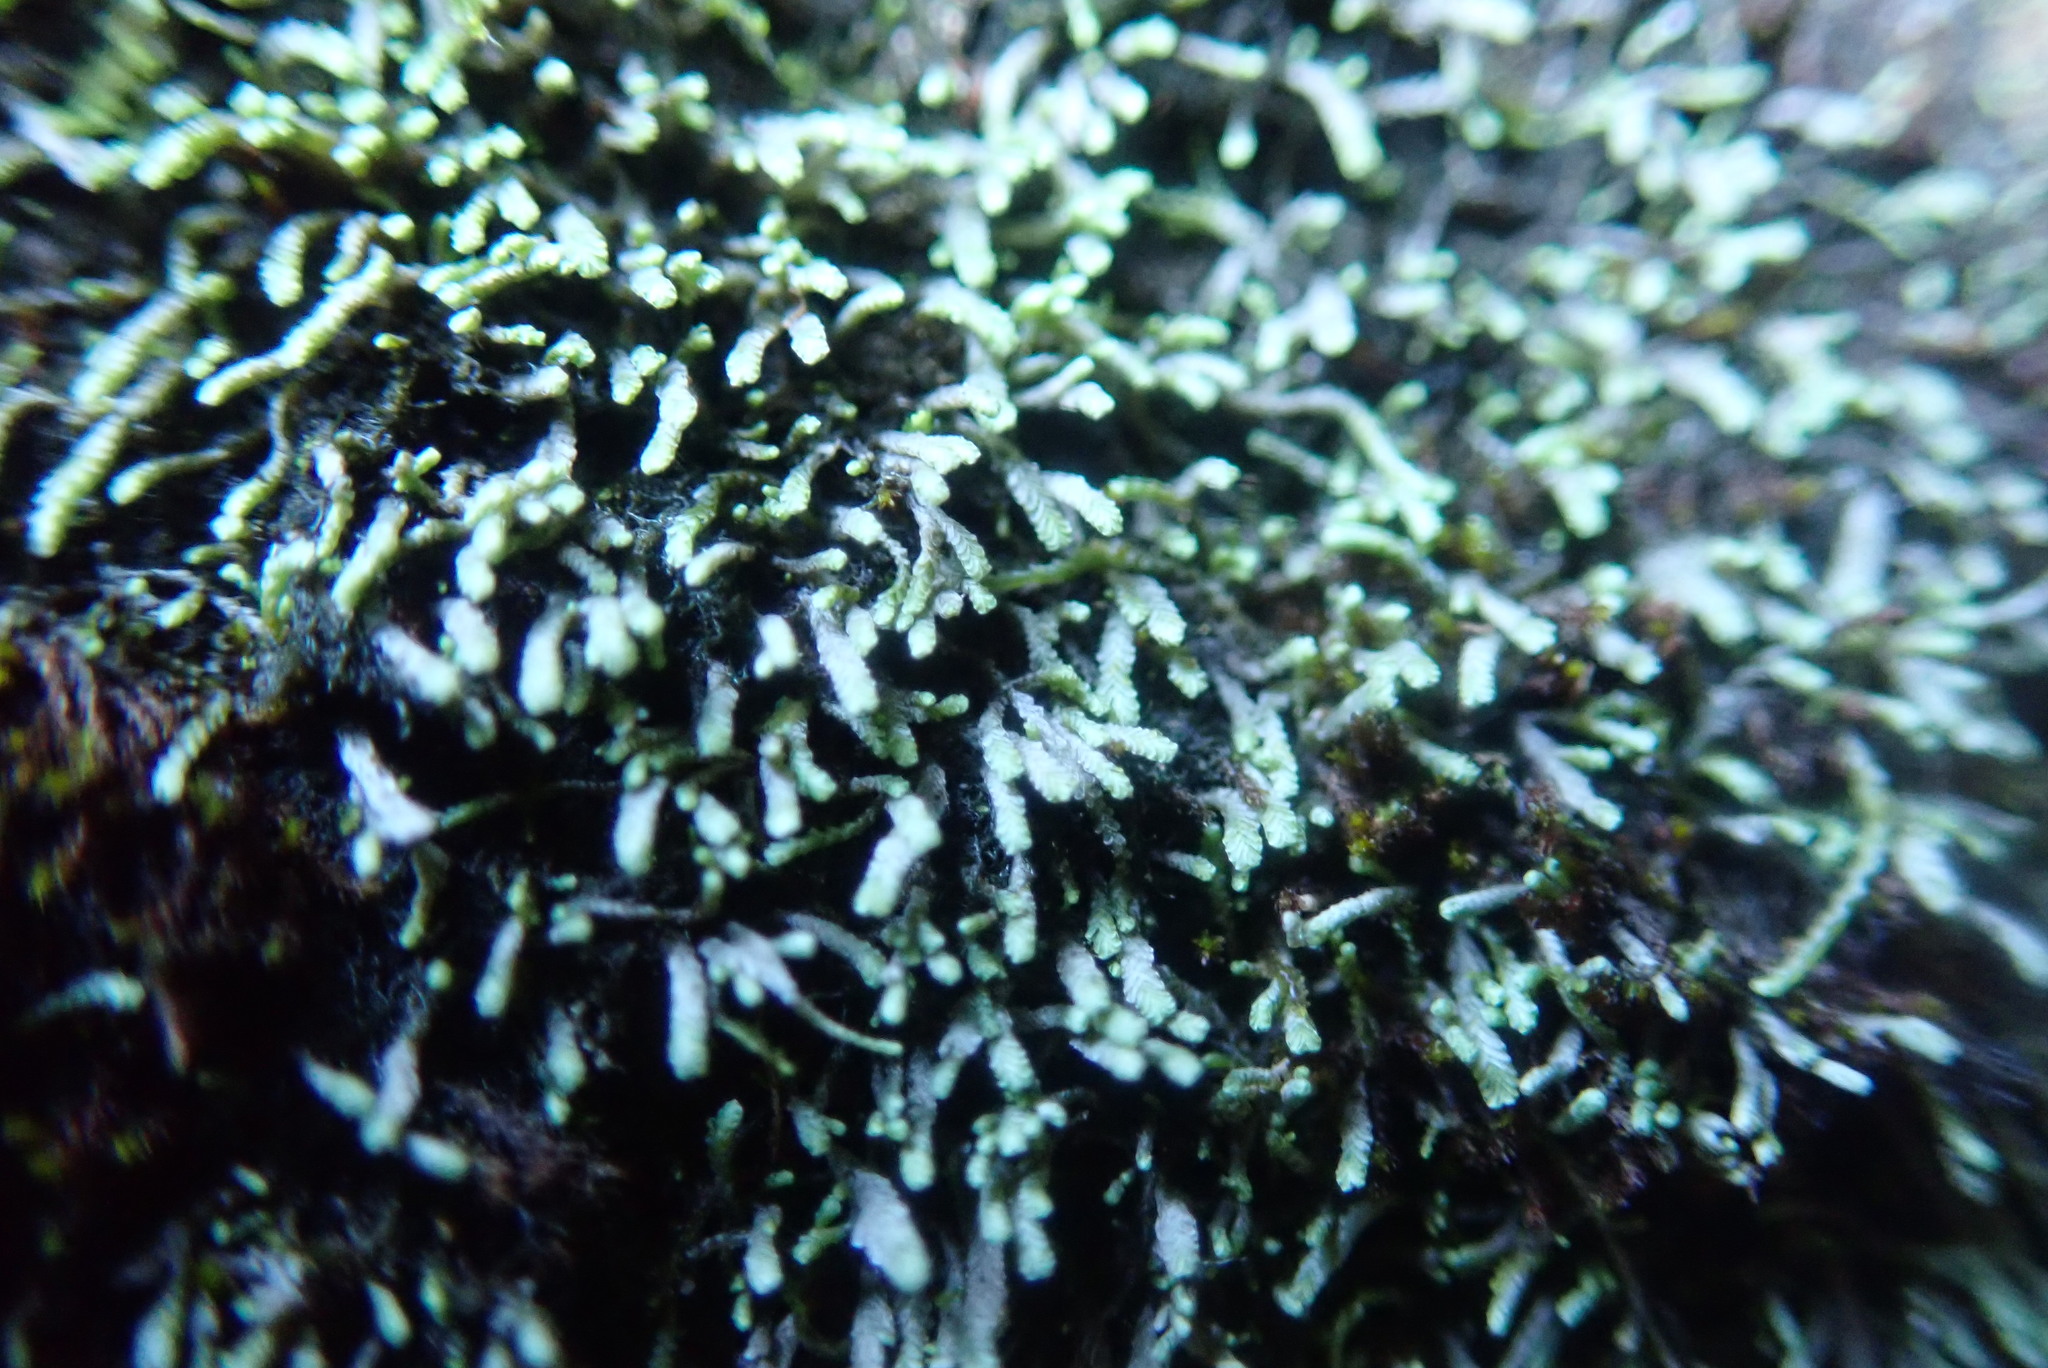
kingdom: Plantae
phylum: Marchantiophyta
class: Jungermanniopsida
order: Jungermanniales
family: Gymnomitriaceae
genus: Gymnomitrion
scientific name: Gymnomitrion obtusum
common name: White frostwort
